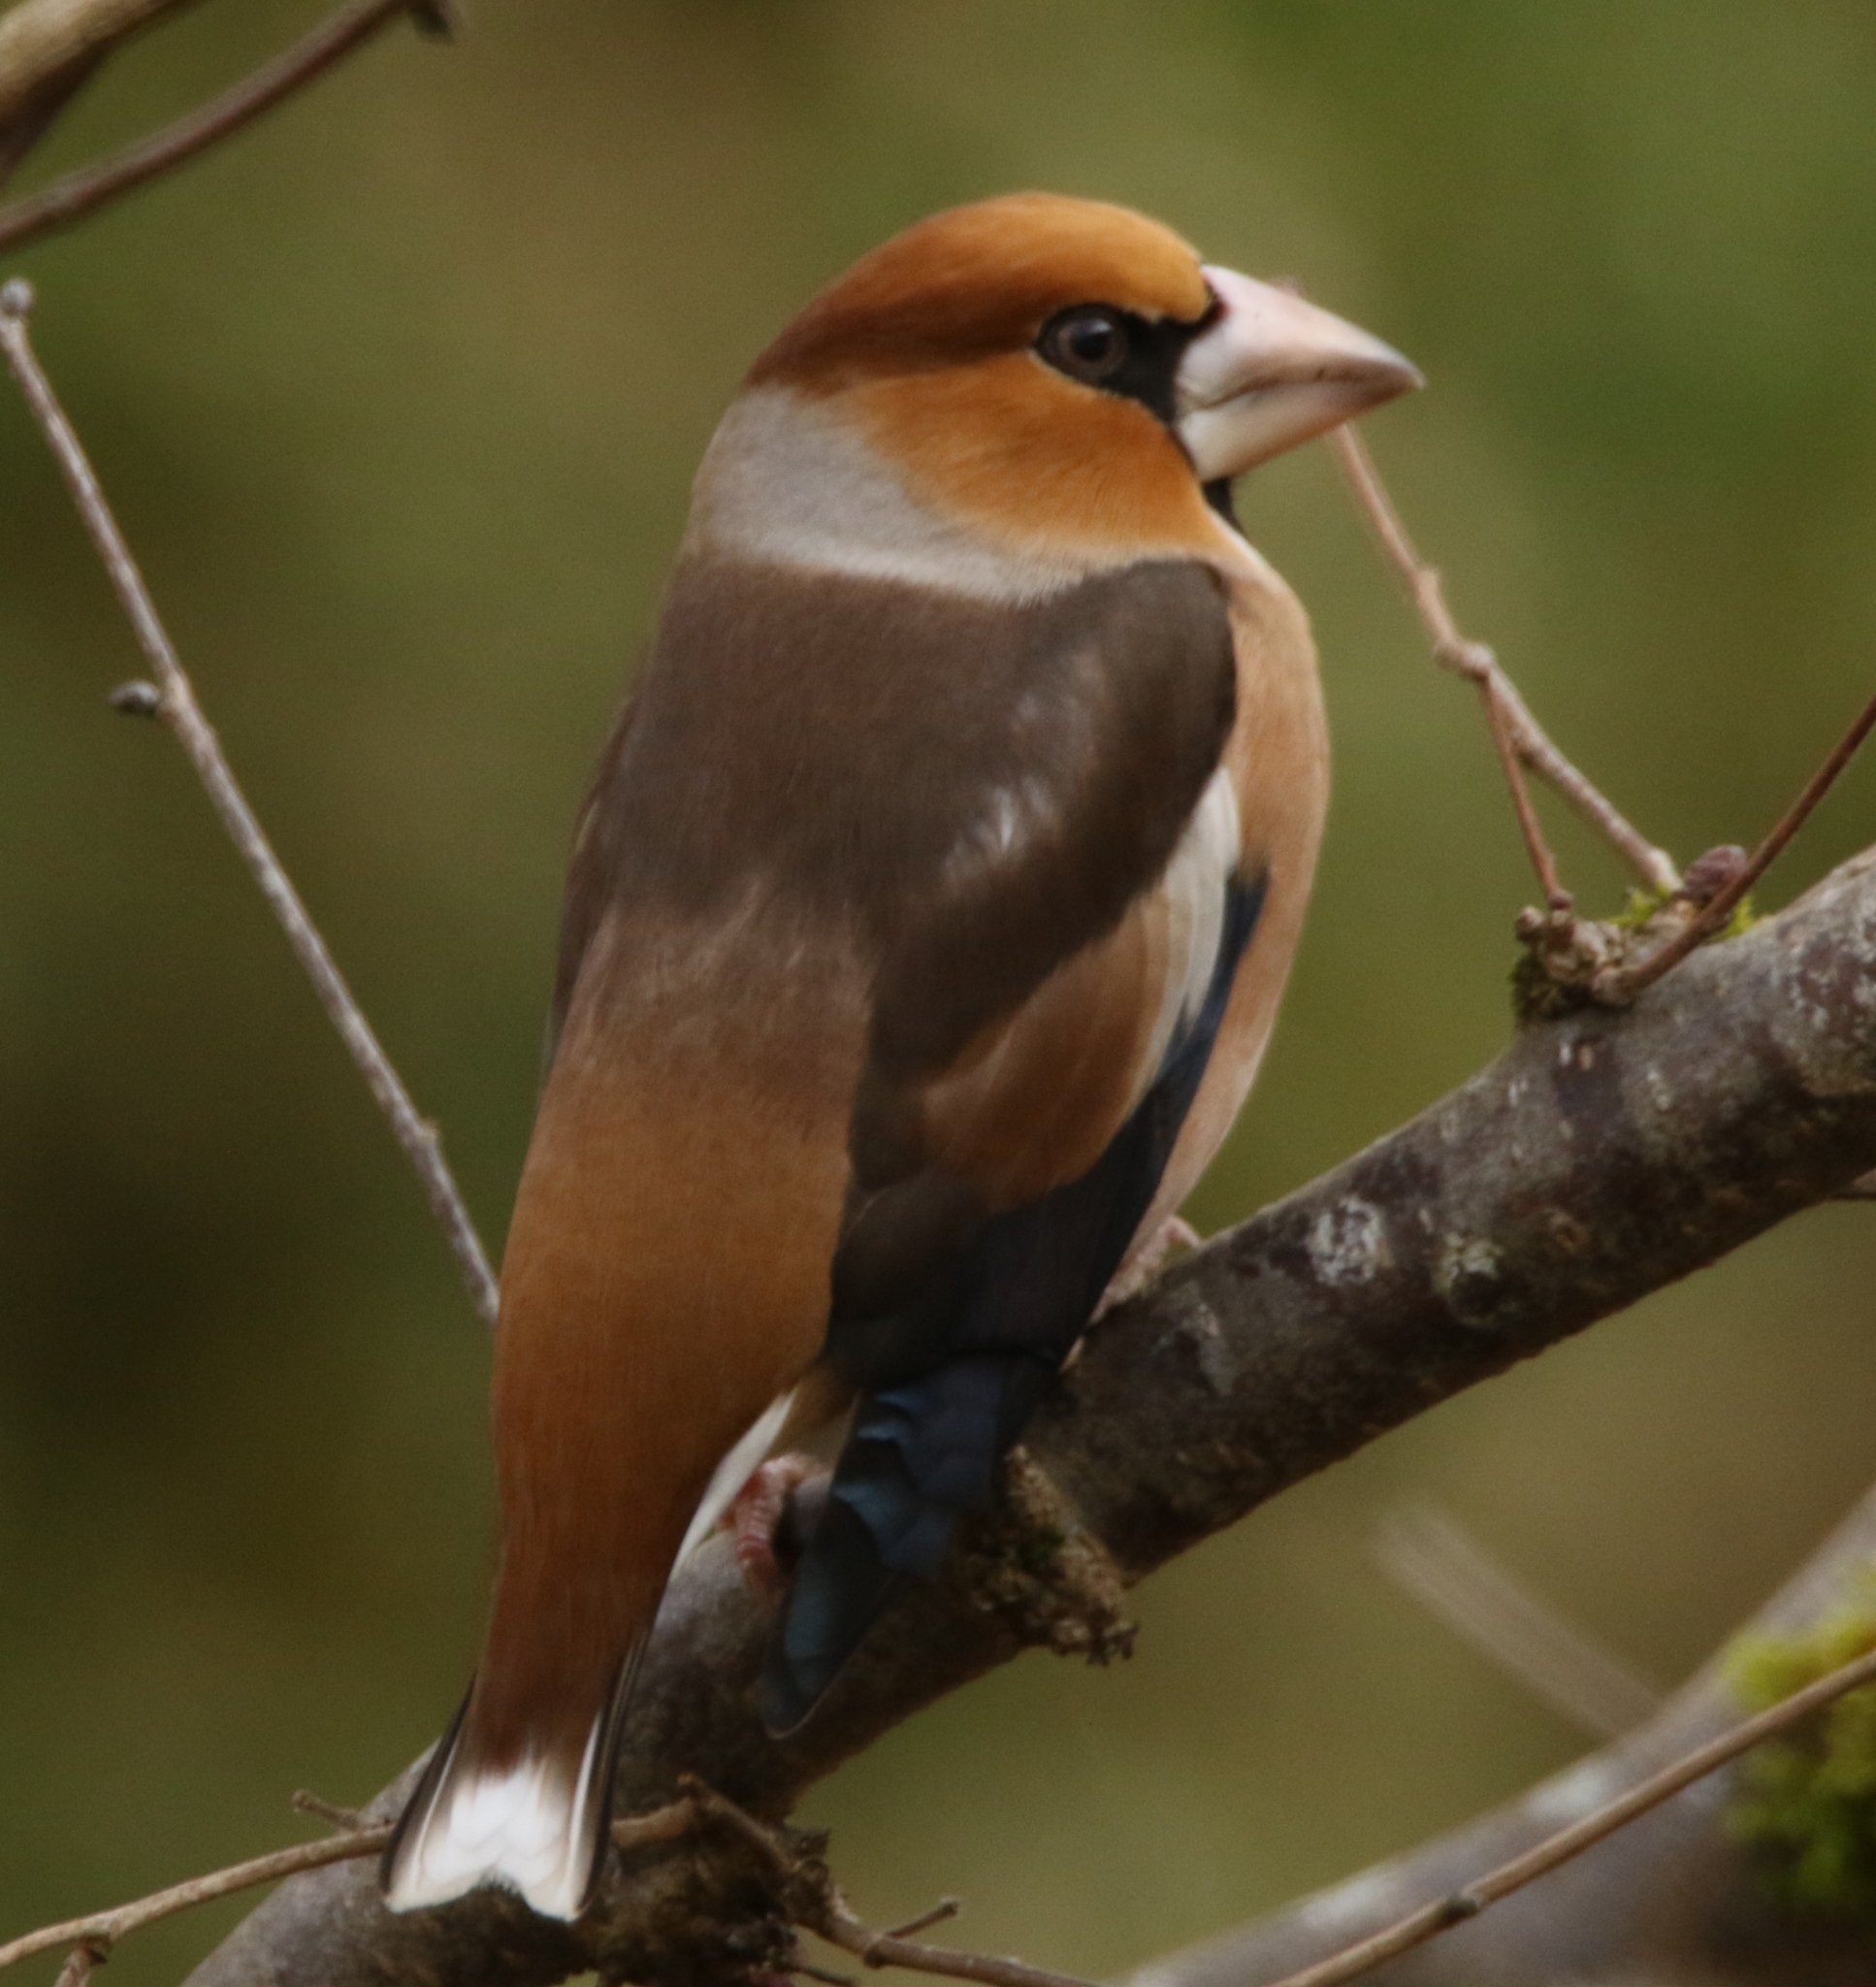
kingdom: Animalia
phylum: Chordata
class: Aves
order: Passeriformes
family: Fringillidae
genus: Coccothraustes
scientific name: Coccothraustes coccothraustes
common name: Hawfinch
